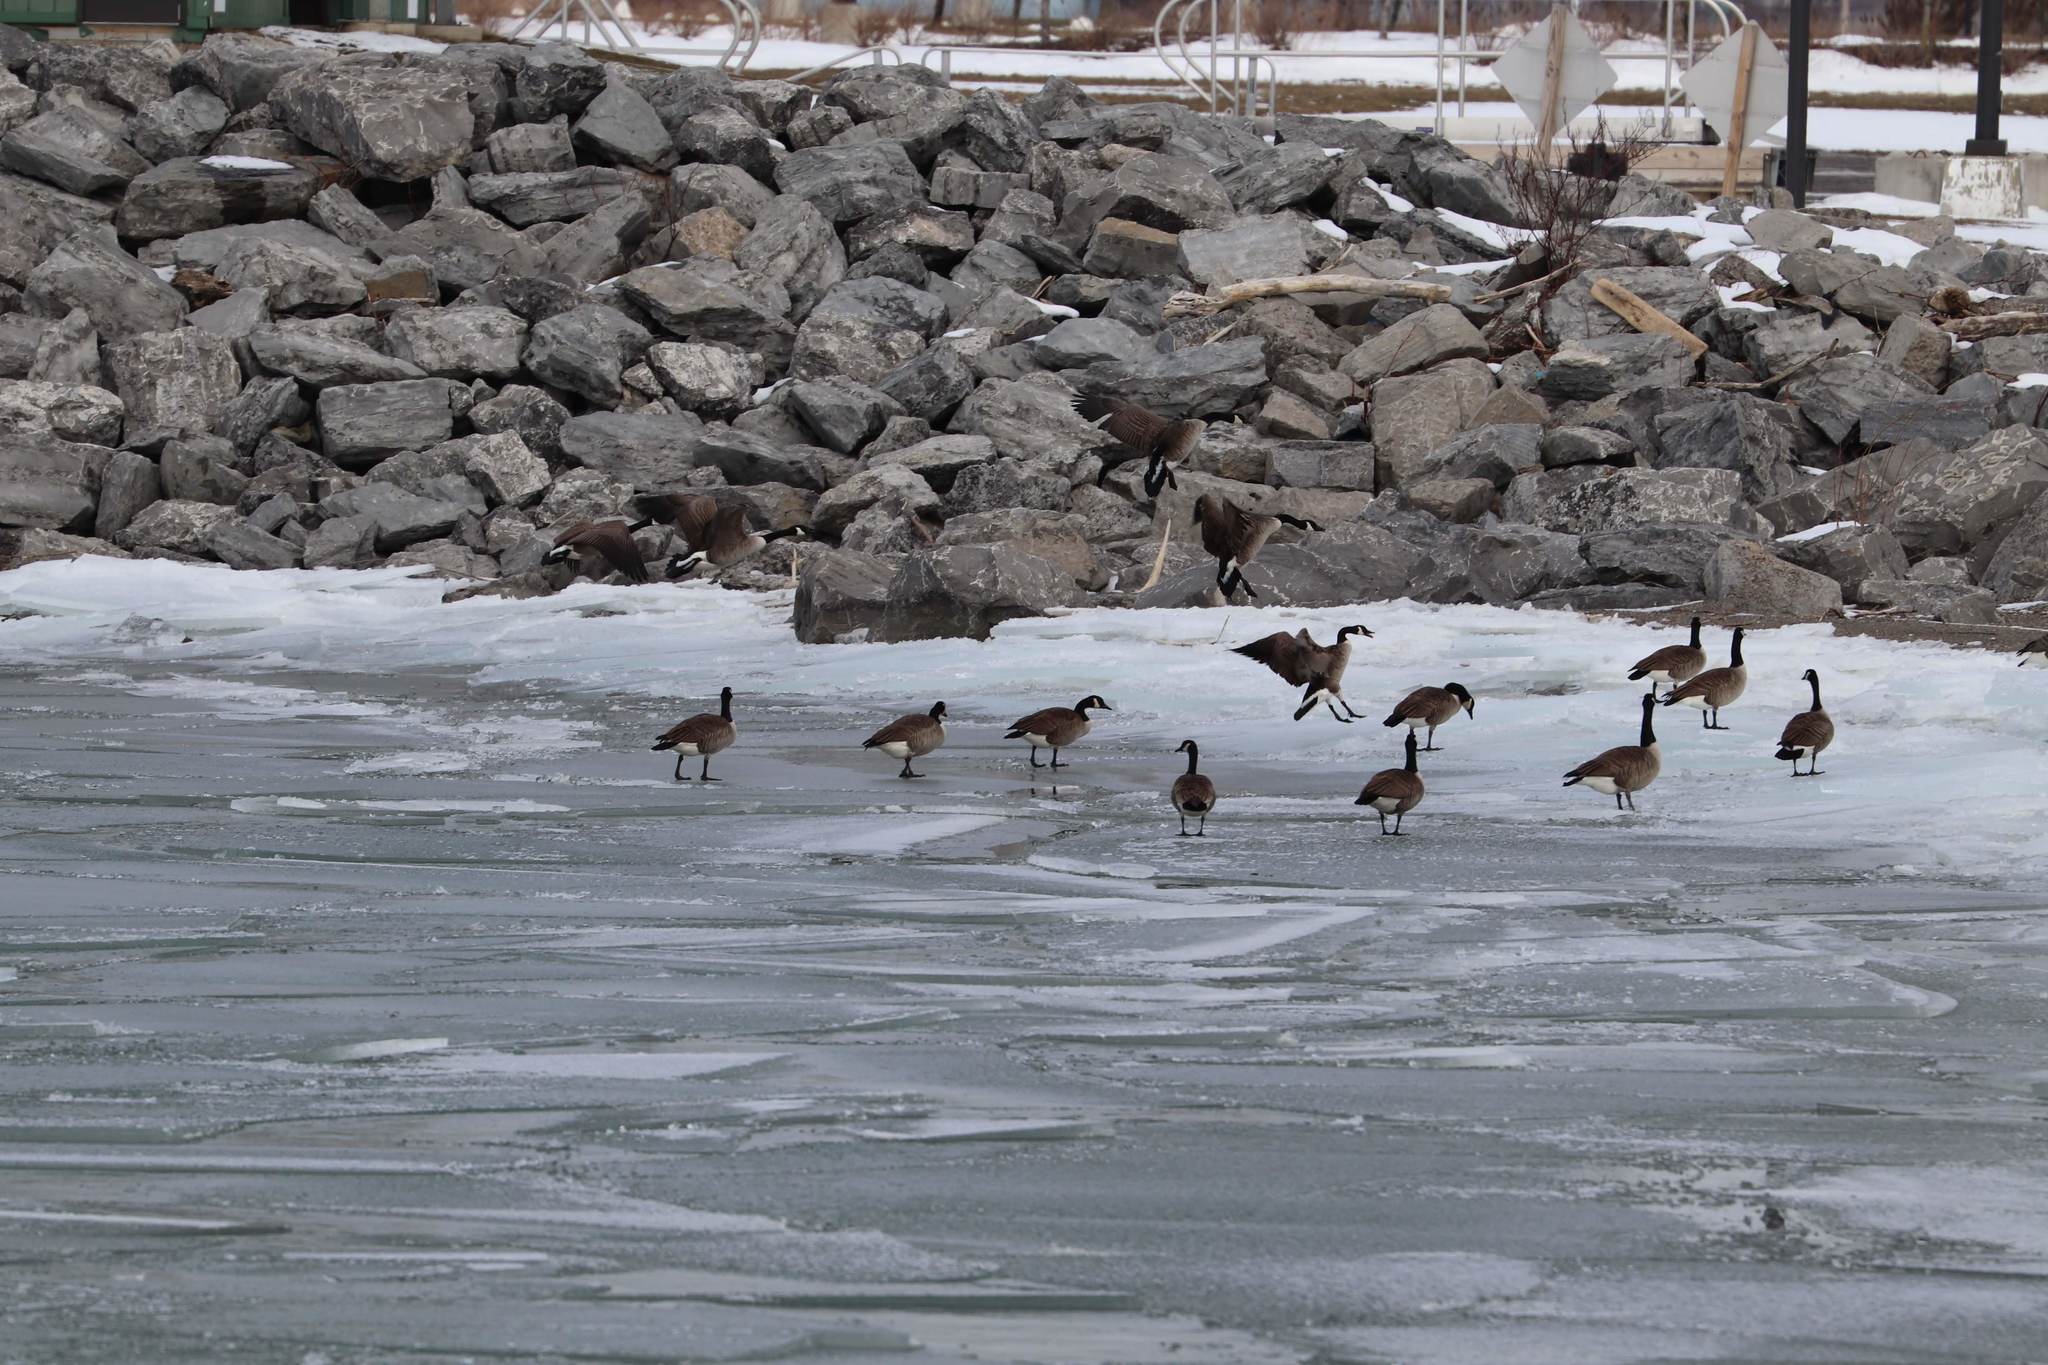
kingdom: Animalia
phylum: Chordata
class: Aves
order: Anseriformes
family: Anatidae
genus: Branta
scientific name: Branta canadensis
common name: Canada goose
